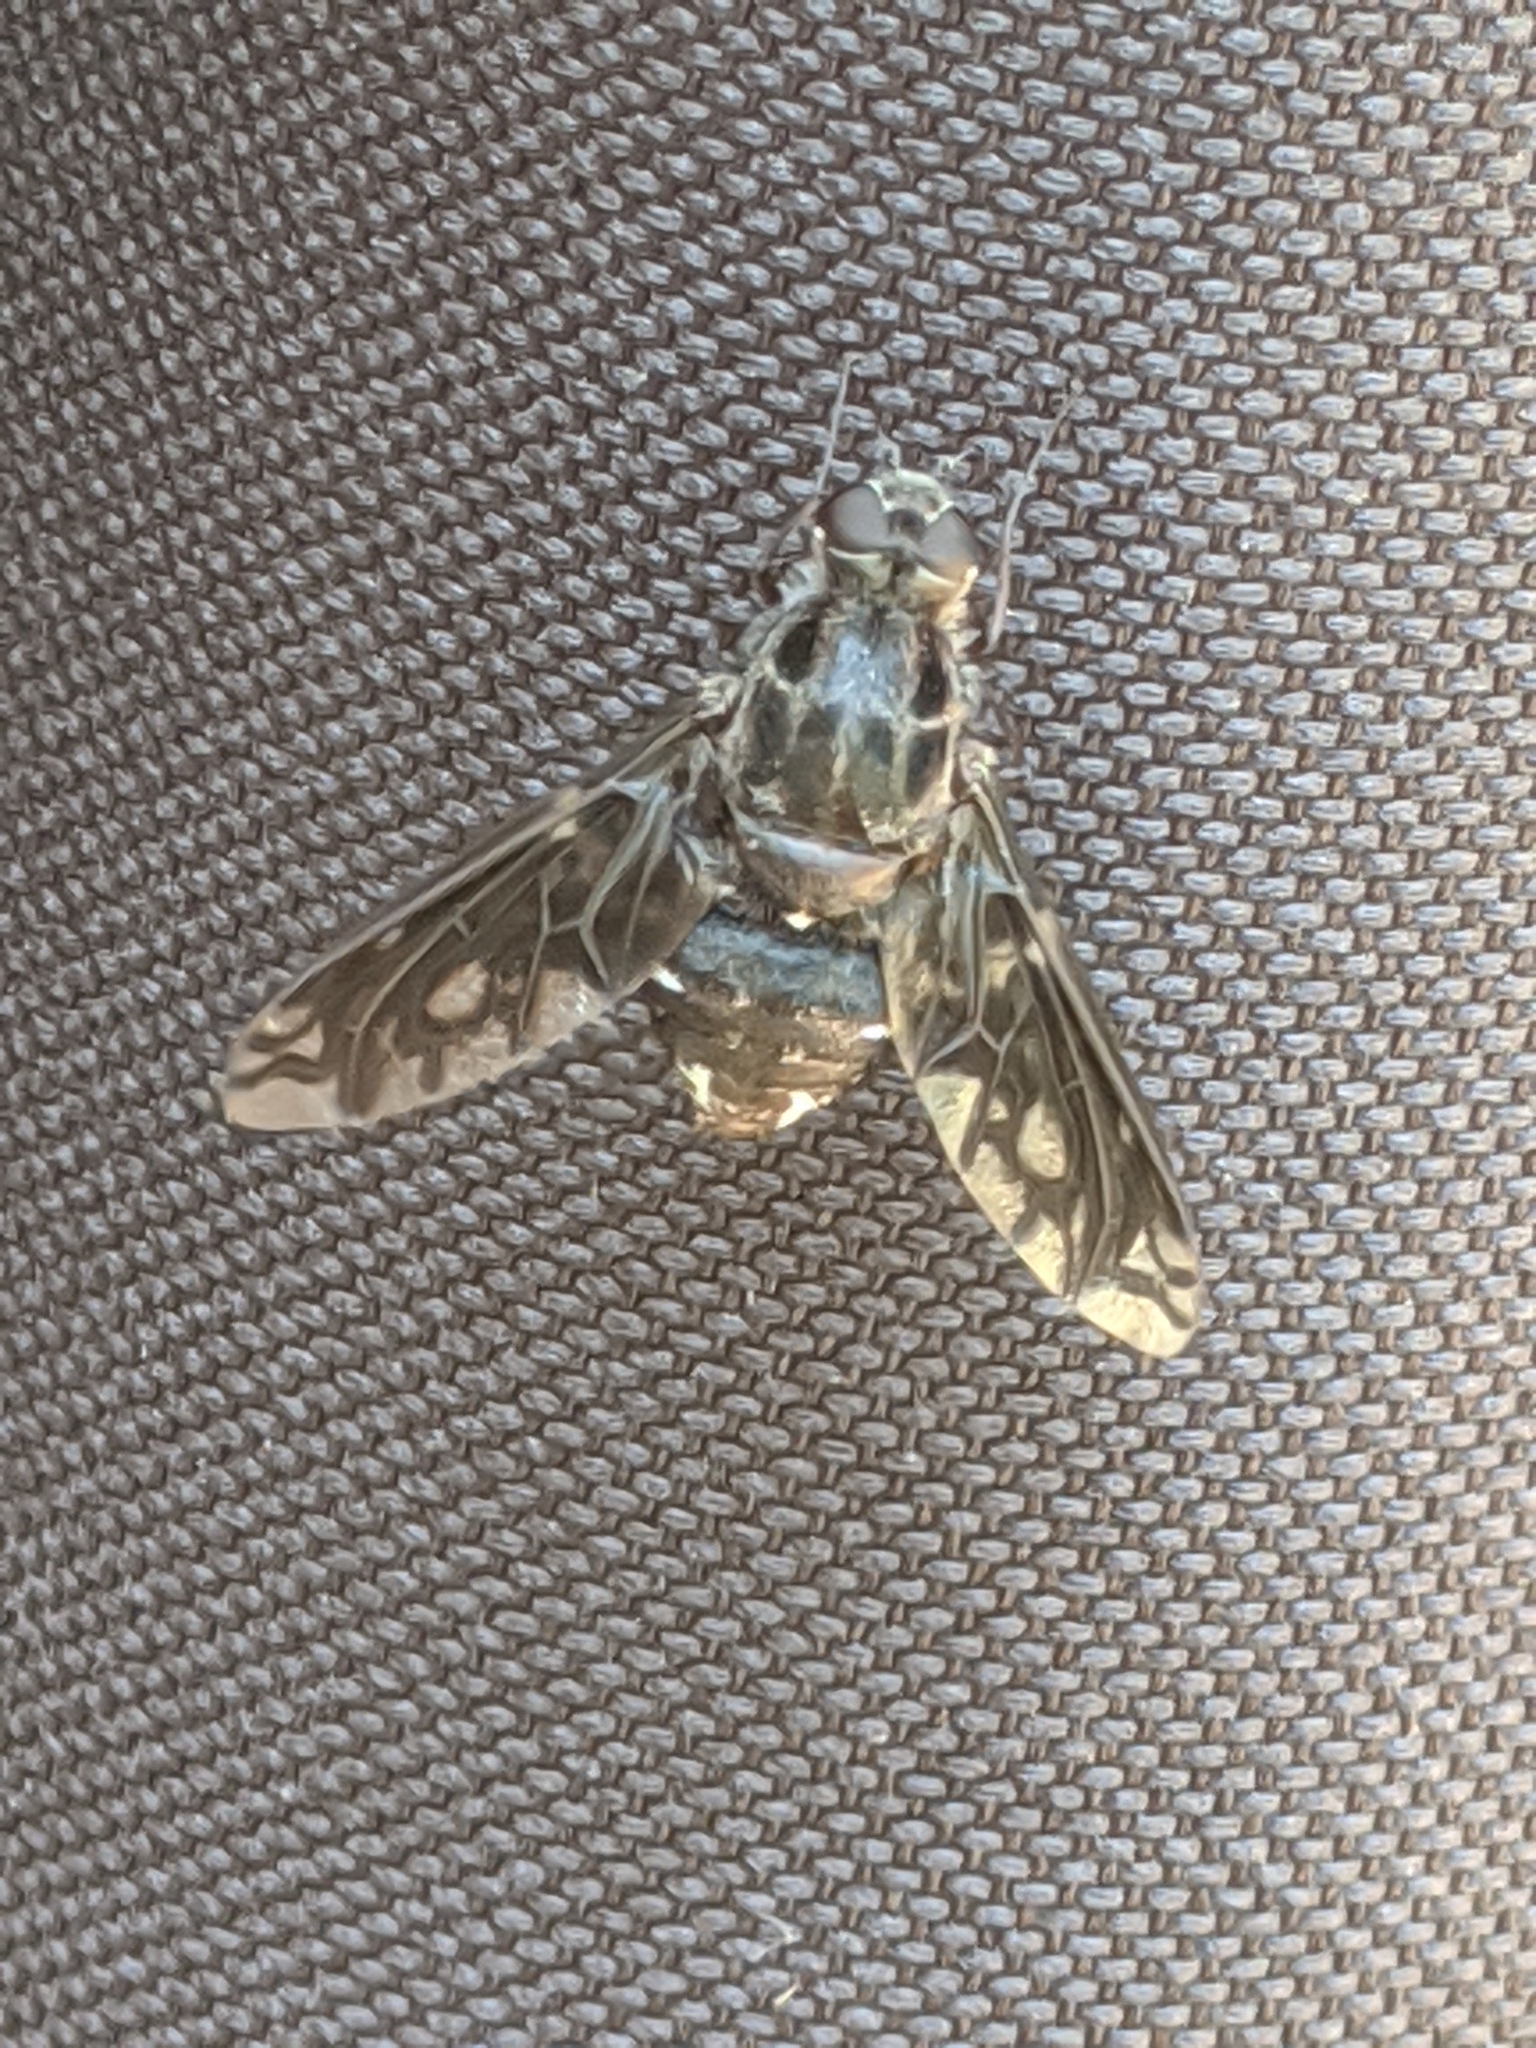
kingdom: Animalia
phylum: Arthropoda
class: Insecta
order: Diptera
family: Bombyliidae
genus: Xenox
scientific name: Xenox tigrinus
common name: Tiger bee fly
